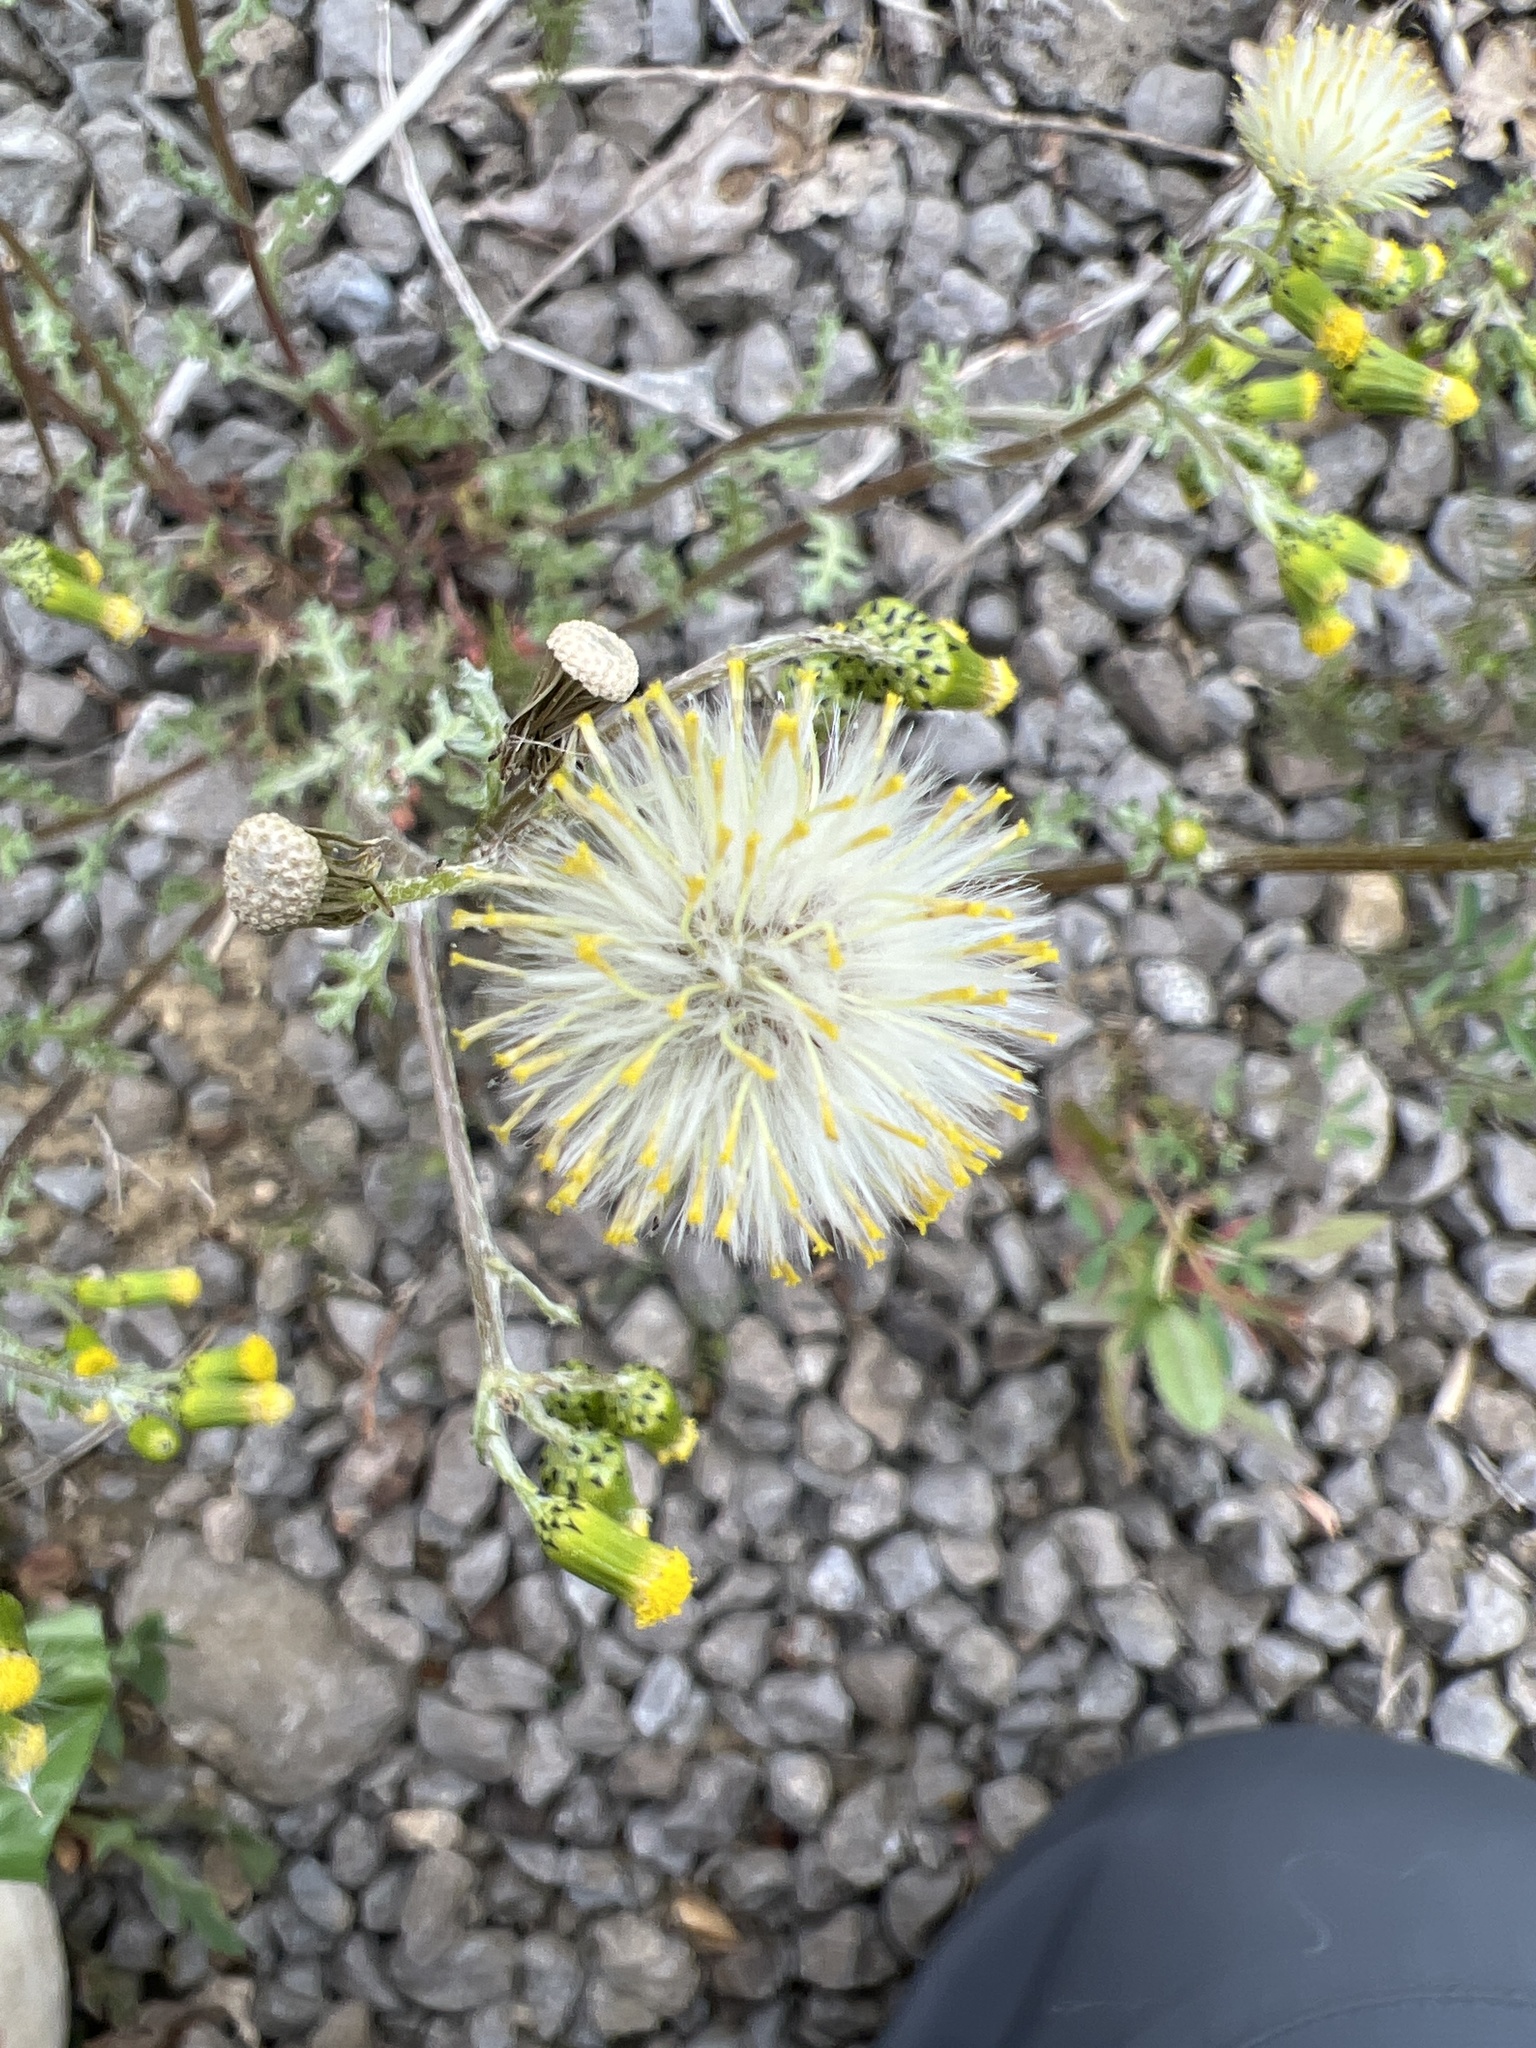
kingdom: Plantae
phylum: Tracheophyta
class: Magnoliopsida
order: Asterales
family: Asteraceae
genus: Senecio
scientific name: Senecio vulgaris
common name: Old-man-in-the-spring
